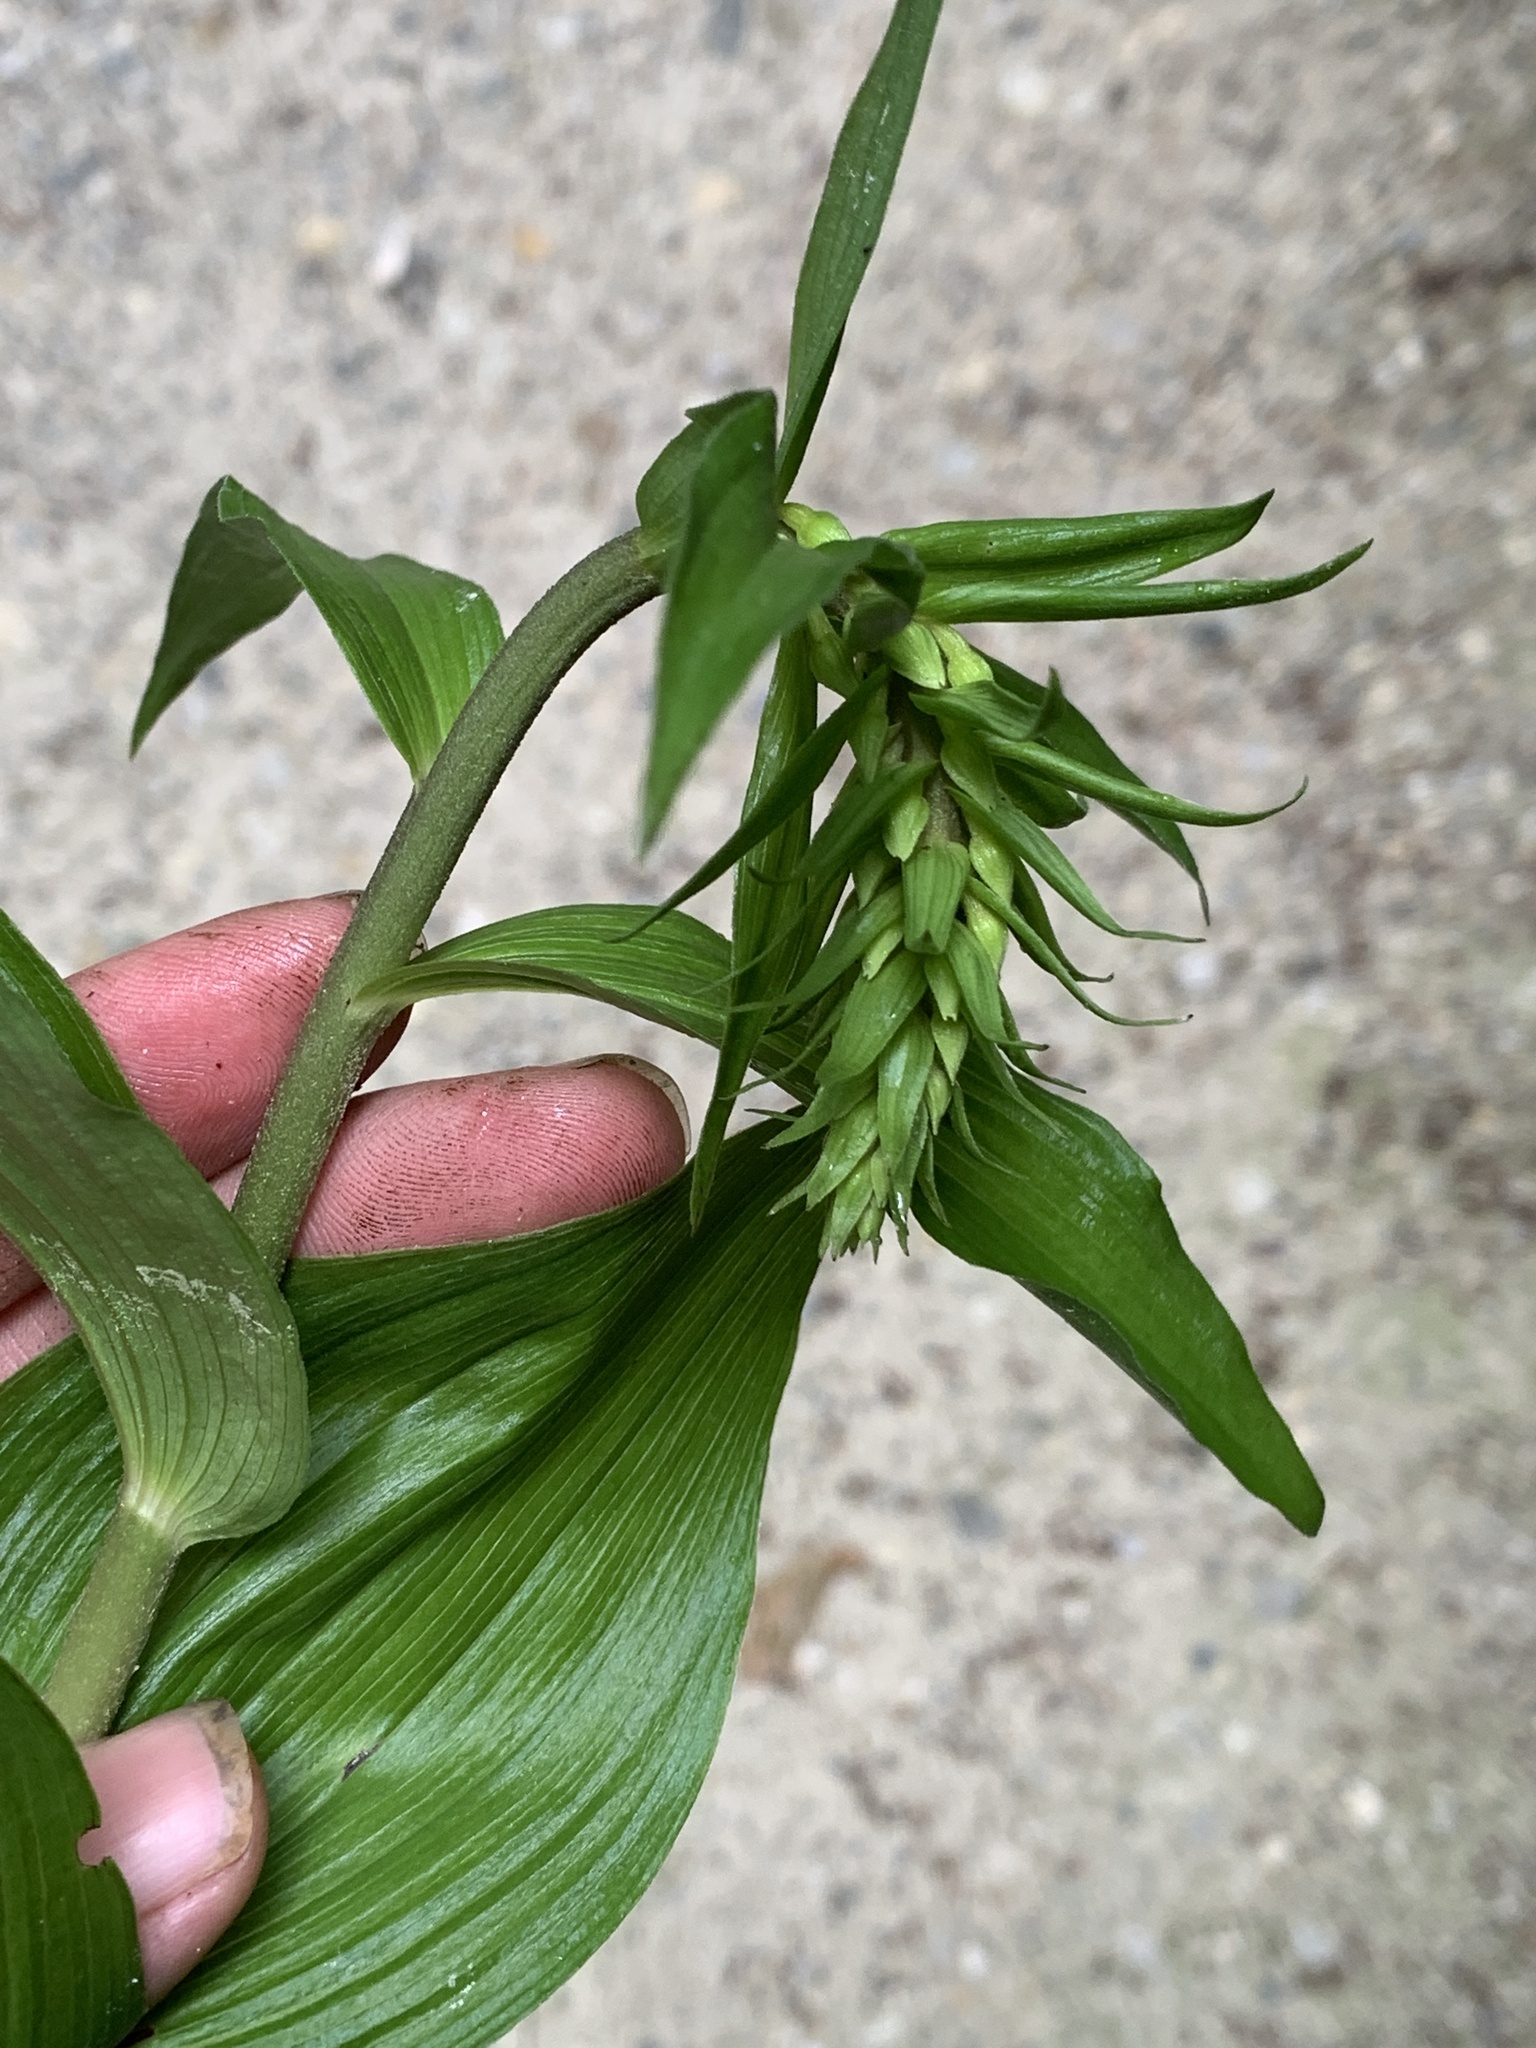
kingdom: Plantae
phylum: Tracheophyta
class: Liliopsida
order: Asparagales
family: Orchidaceae
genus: Epipactis
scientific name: Epipactis helleborine
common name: Broad-leaved helleborine
